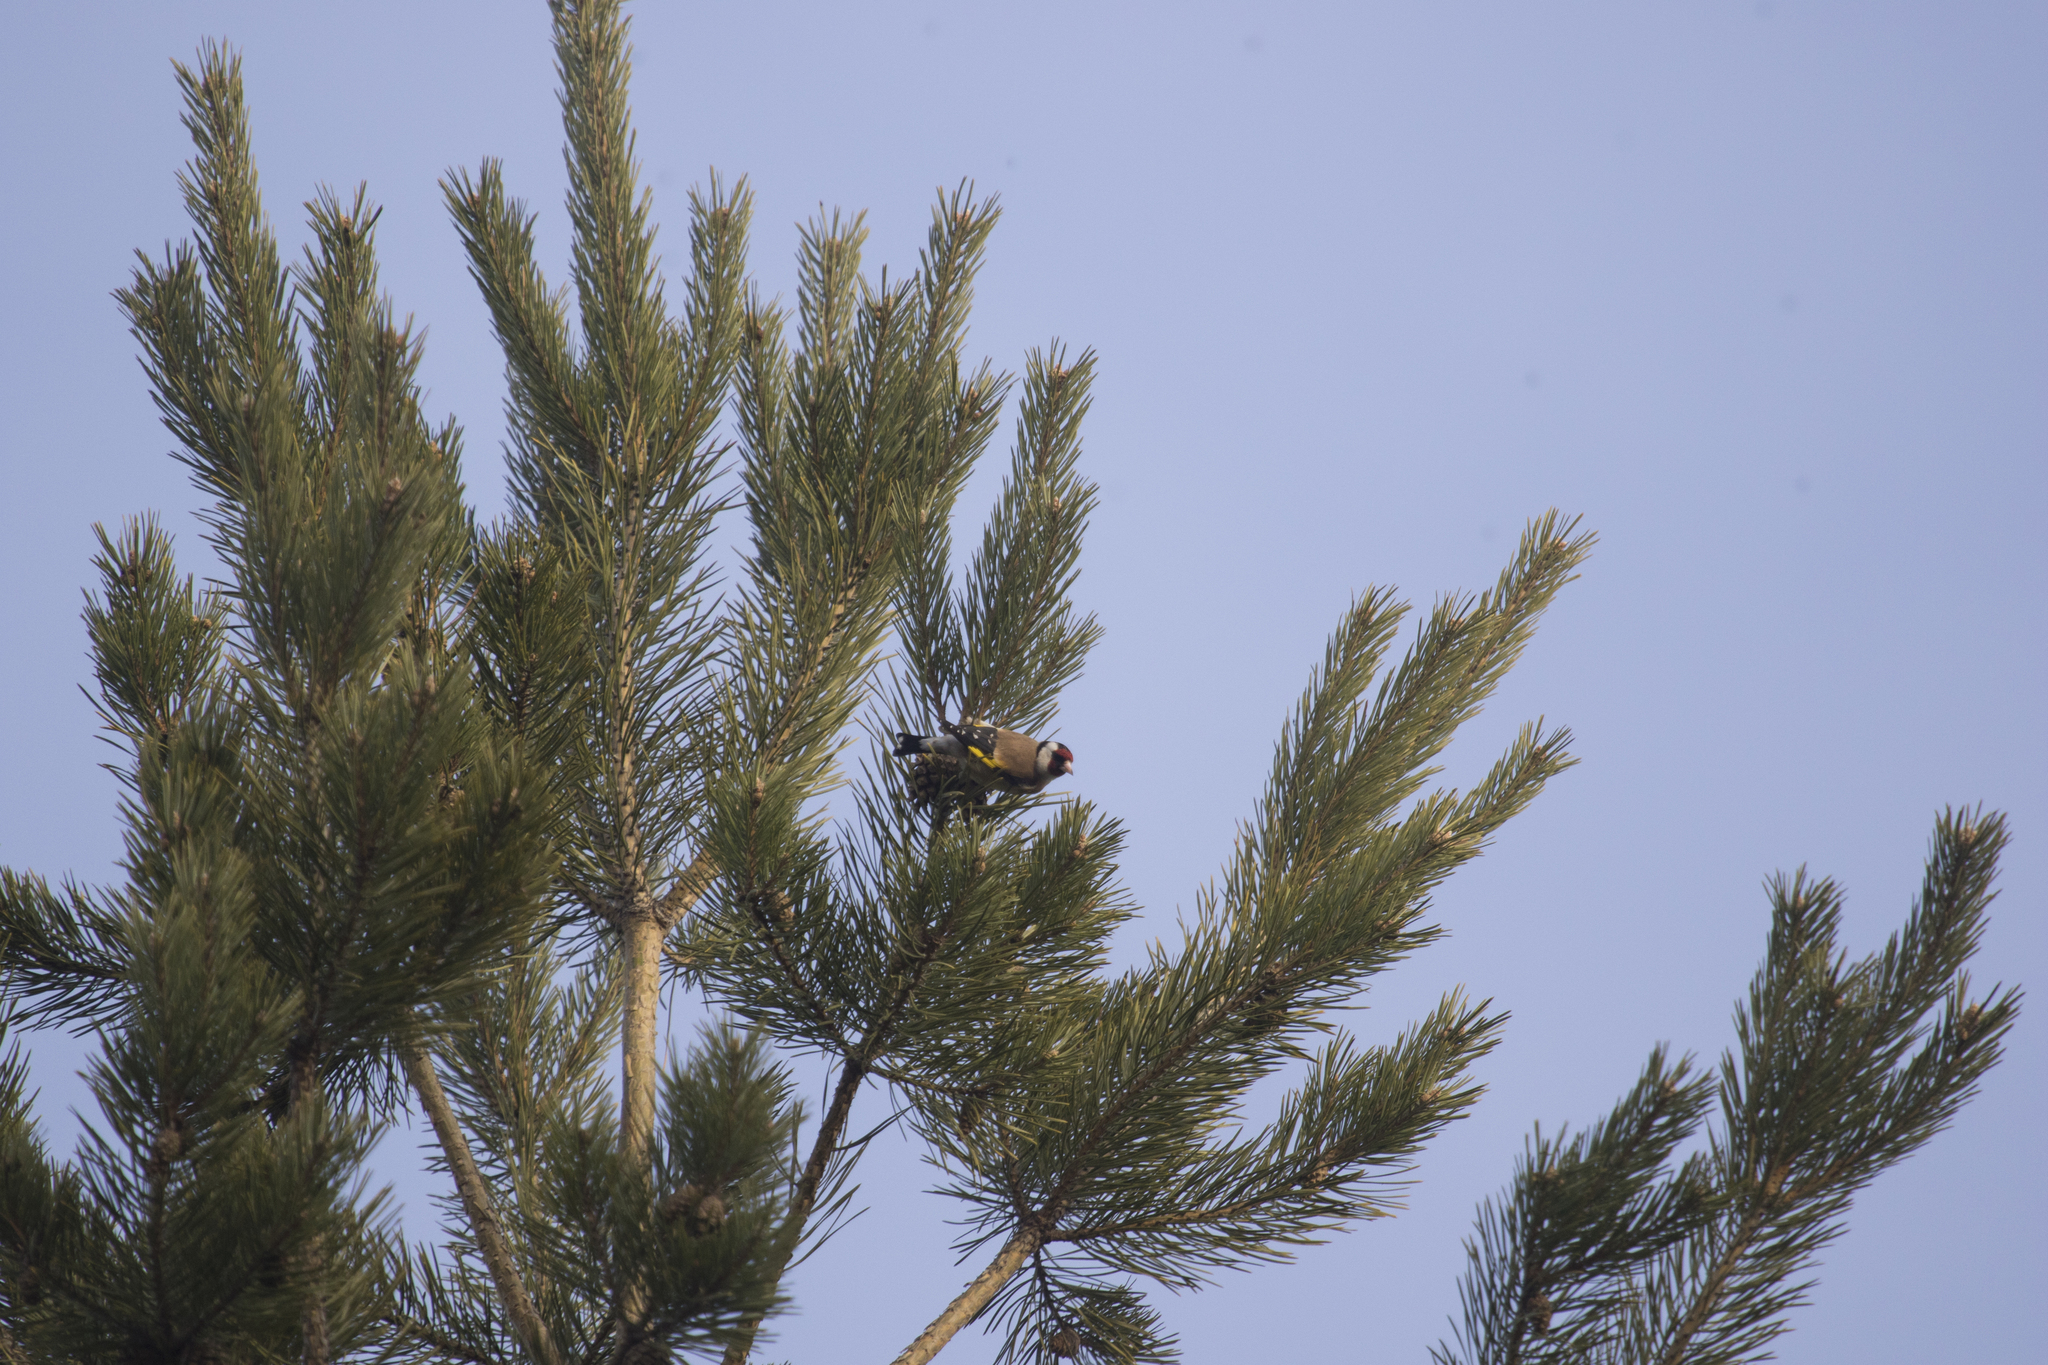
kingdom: Animalia
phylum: Chordata
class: Aves
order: Passeriformes
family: Fringillidae
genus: Carduelis
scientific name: Carduelis carduelis
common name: European goldfinch
